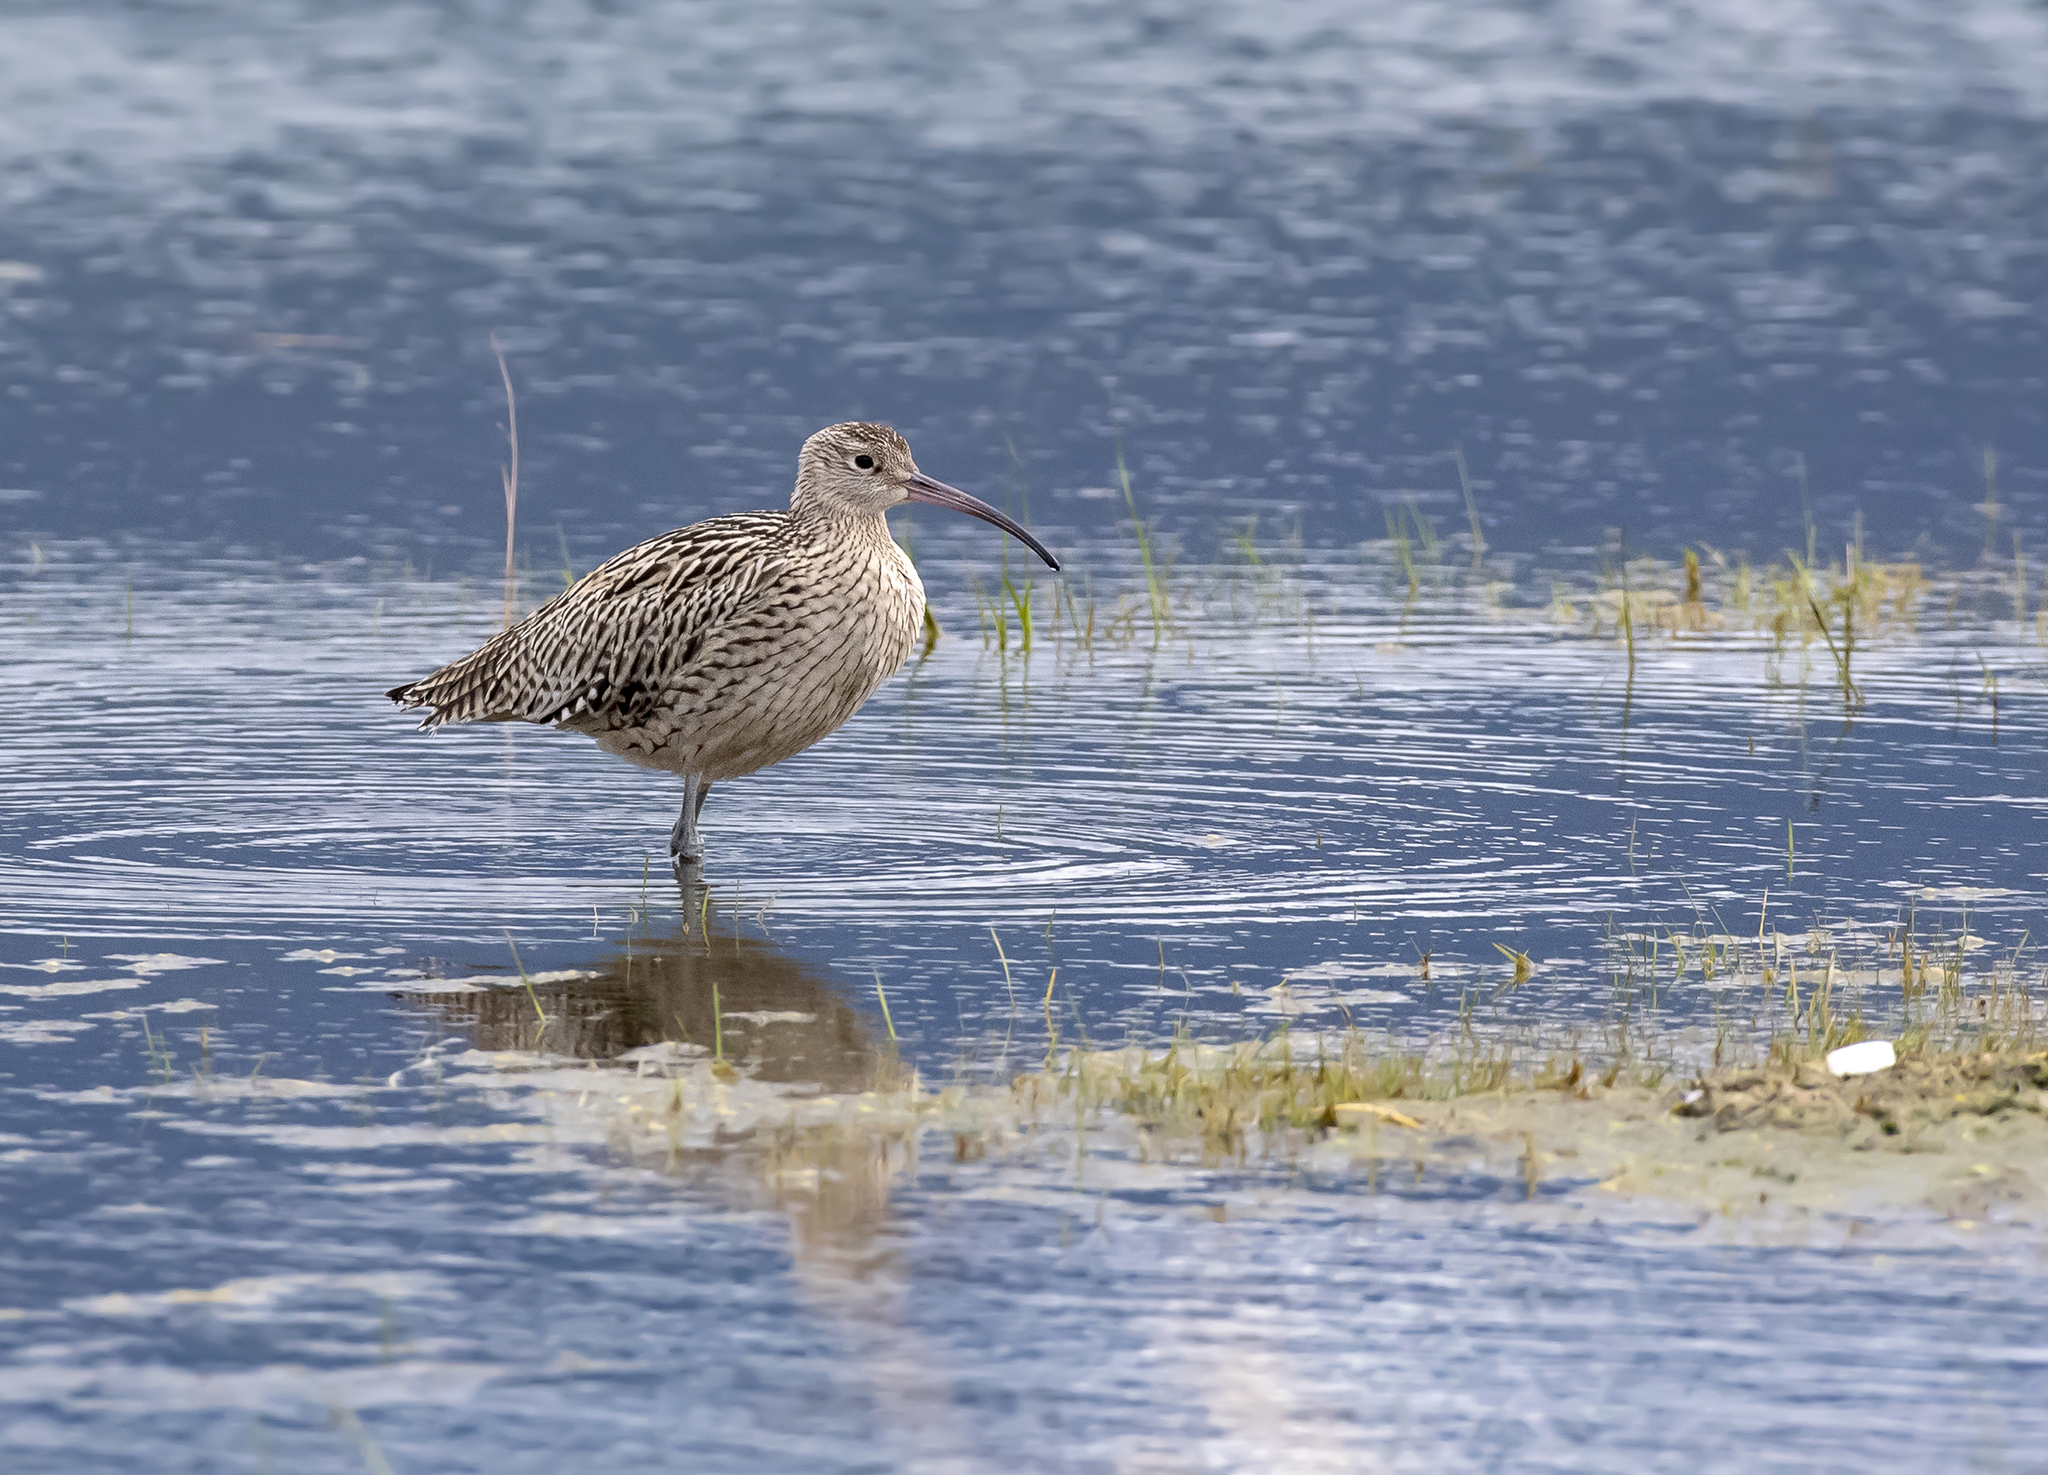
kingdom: Animalia
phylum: Chordata
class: Aves
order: Charadriiformes
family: Scolopacidae
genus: Numenius
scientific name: Numenius madagascariensis
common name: Far eastern curlew
